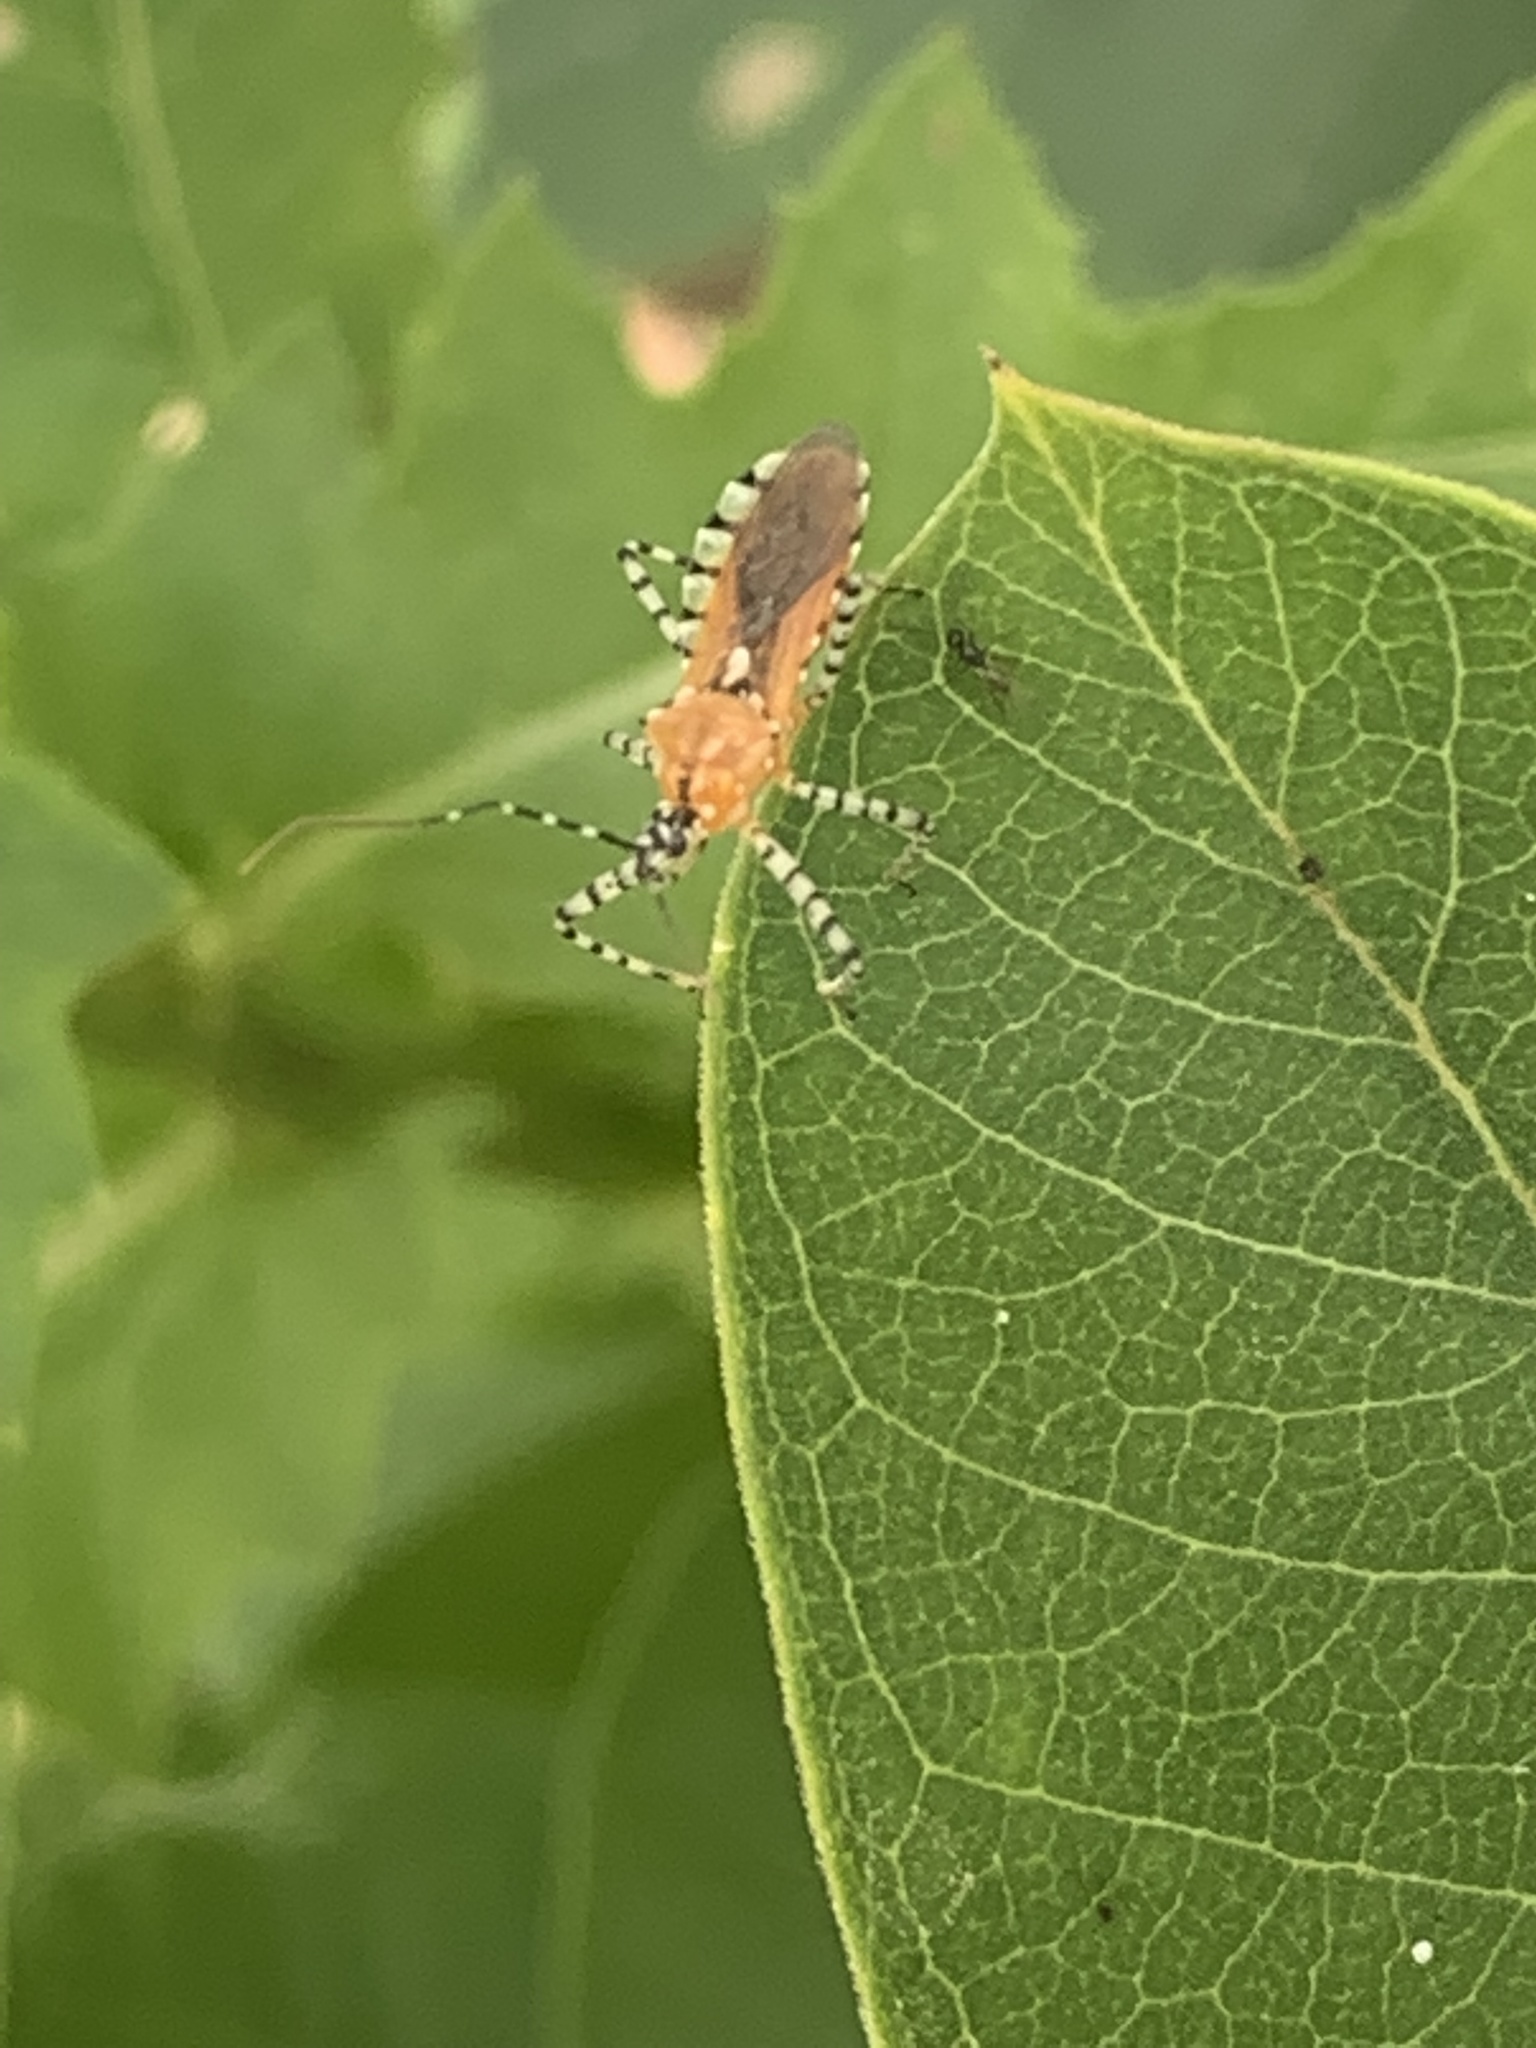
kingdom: Animalia
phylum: Arthropoda
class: Insecta
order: Hemiptera
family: Reduviidae
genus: Pselliopus
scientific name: Pselliopus barberi
